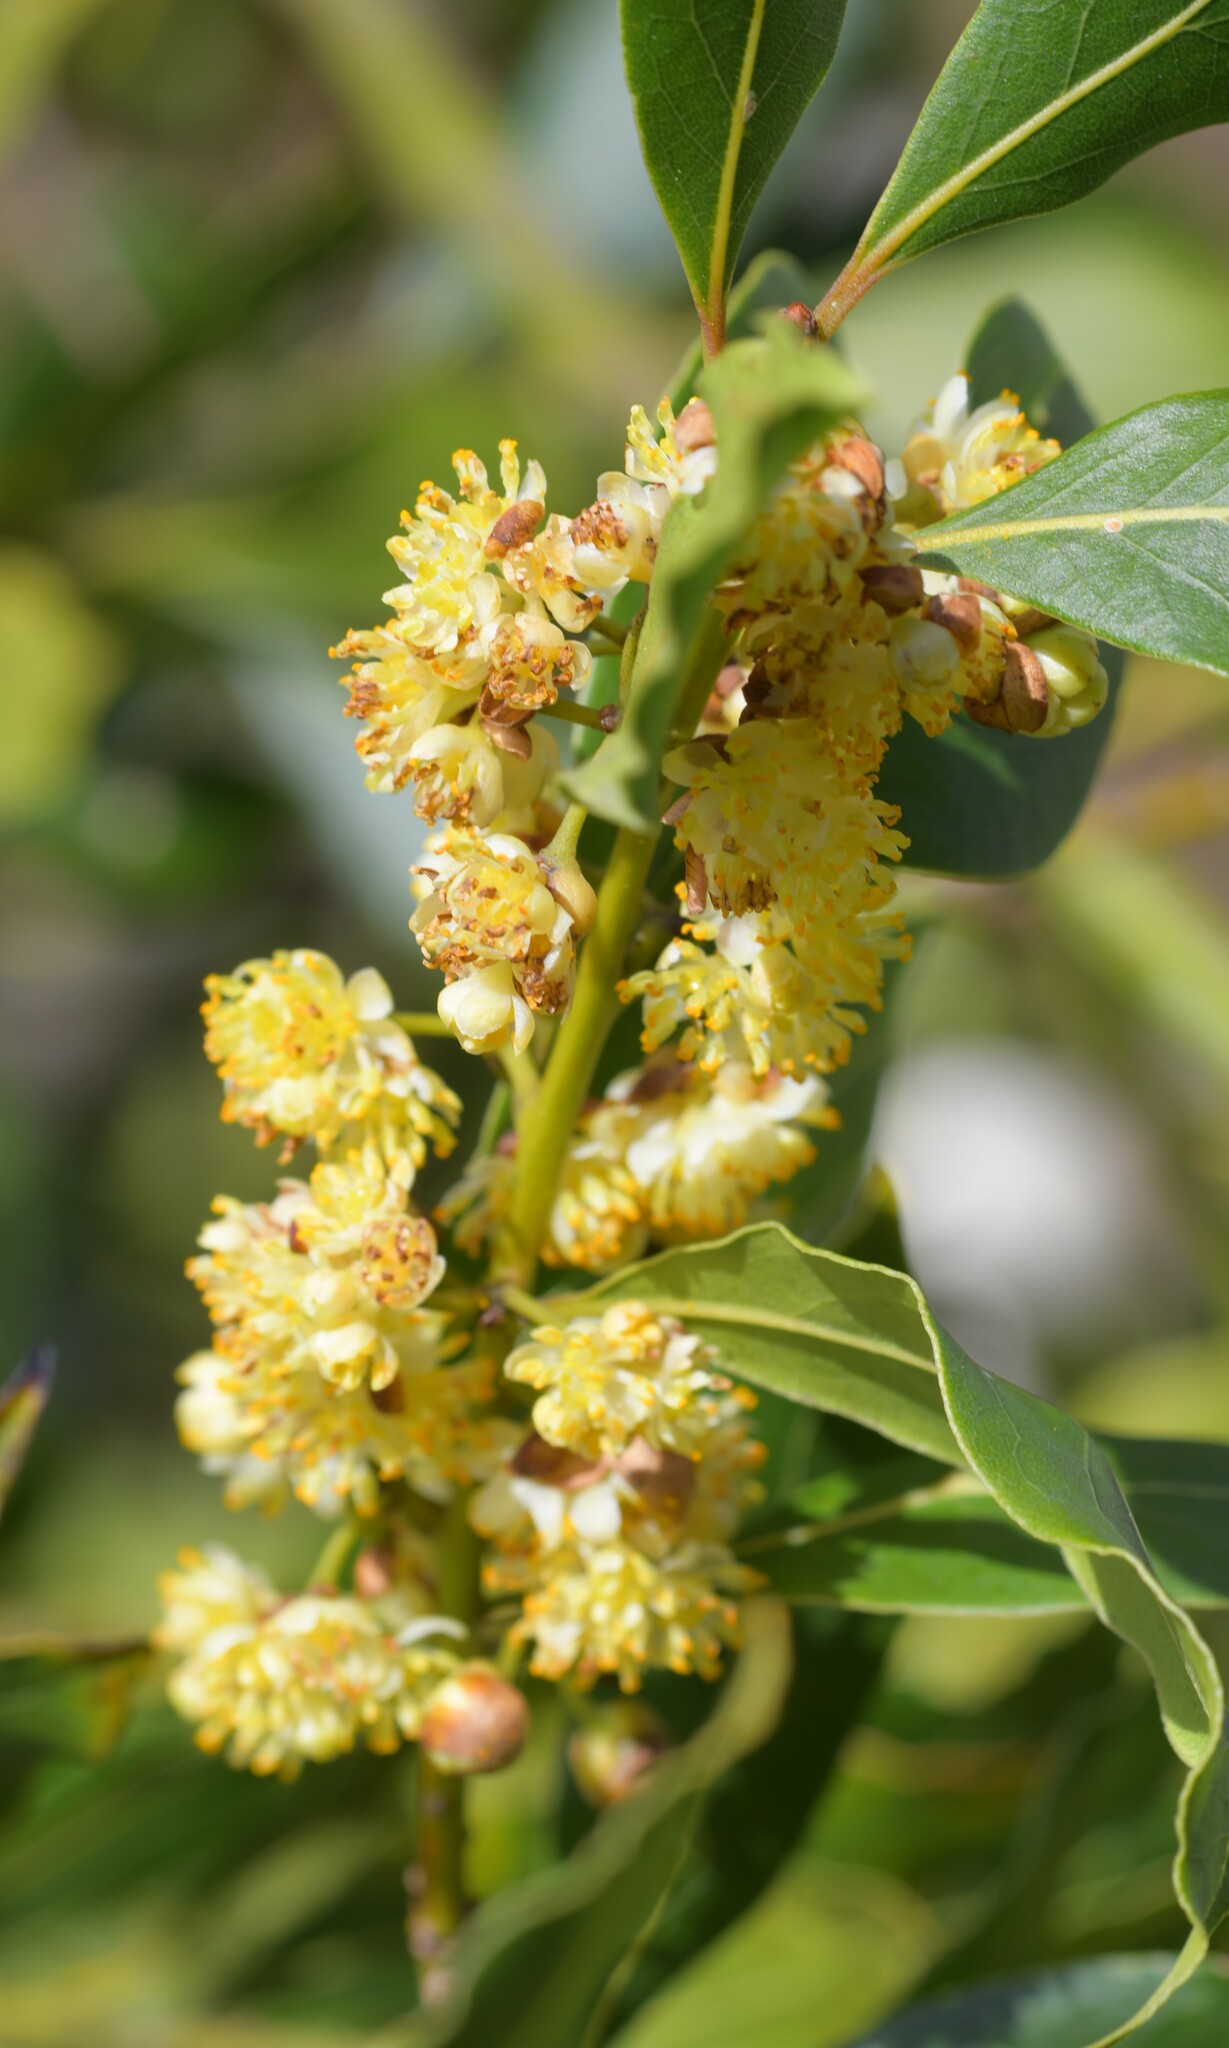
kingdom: Plantae
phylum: Tracheophyta
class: Magnoliopsida
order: Laurales
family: Lauraceae
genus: Laurus
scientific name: Laurus nobilis
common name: Bay
